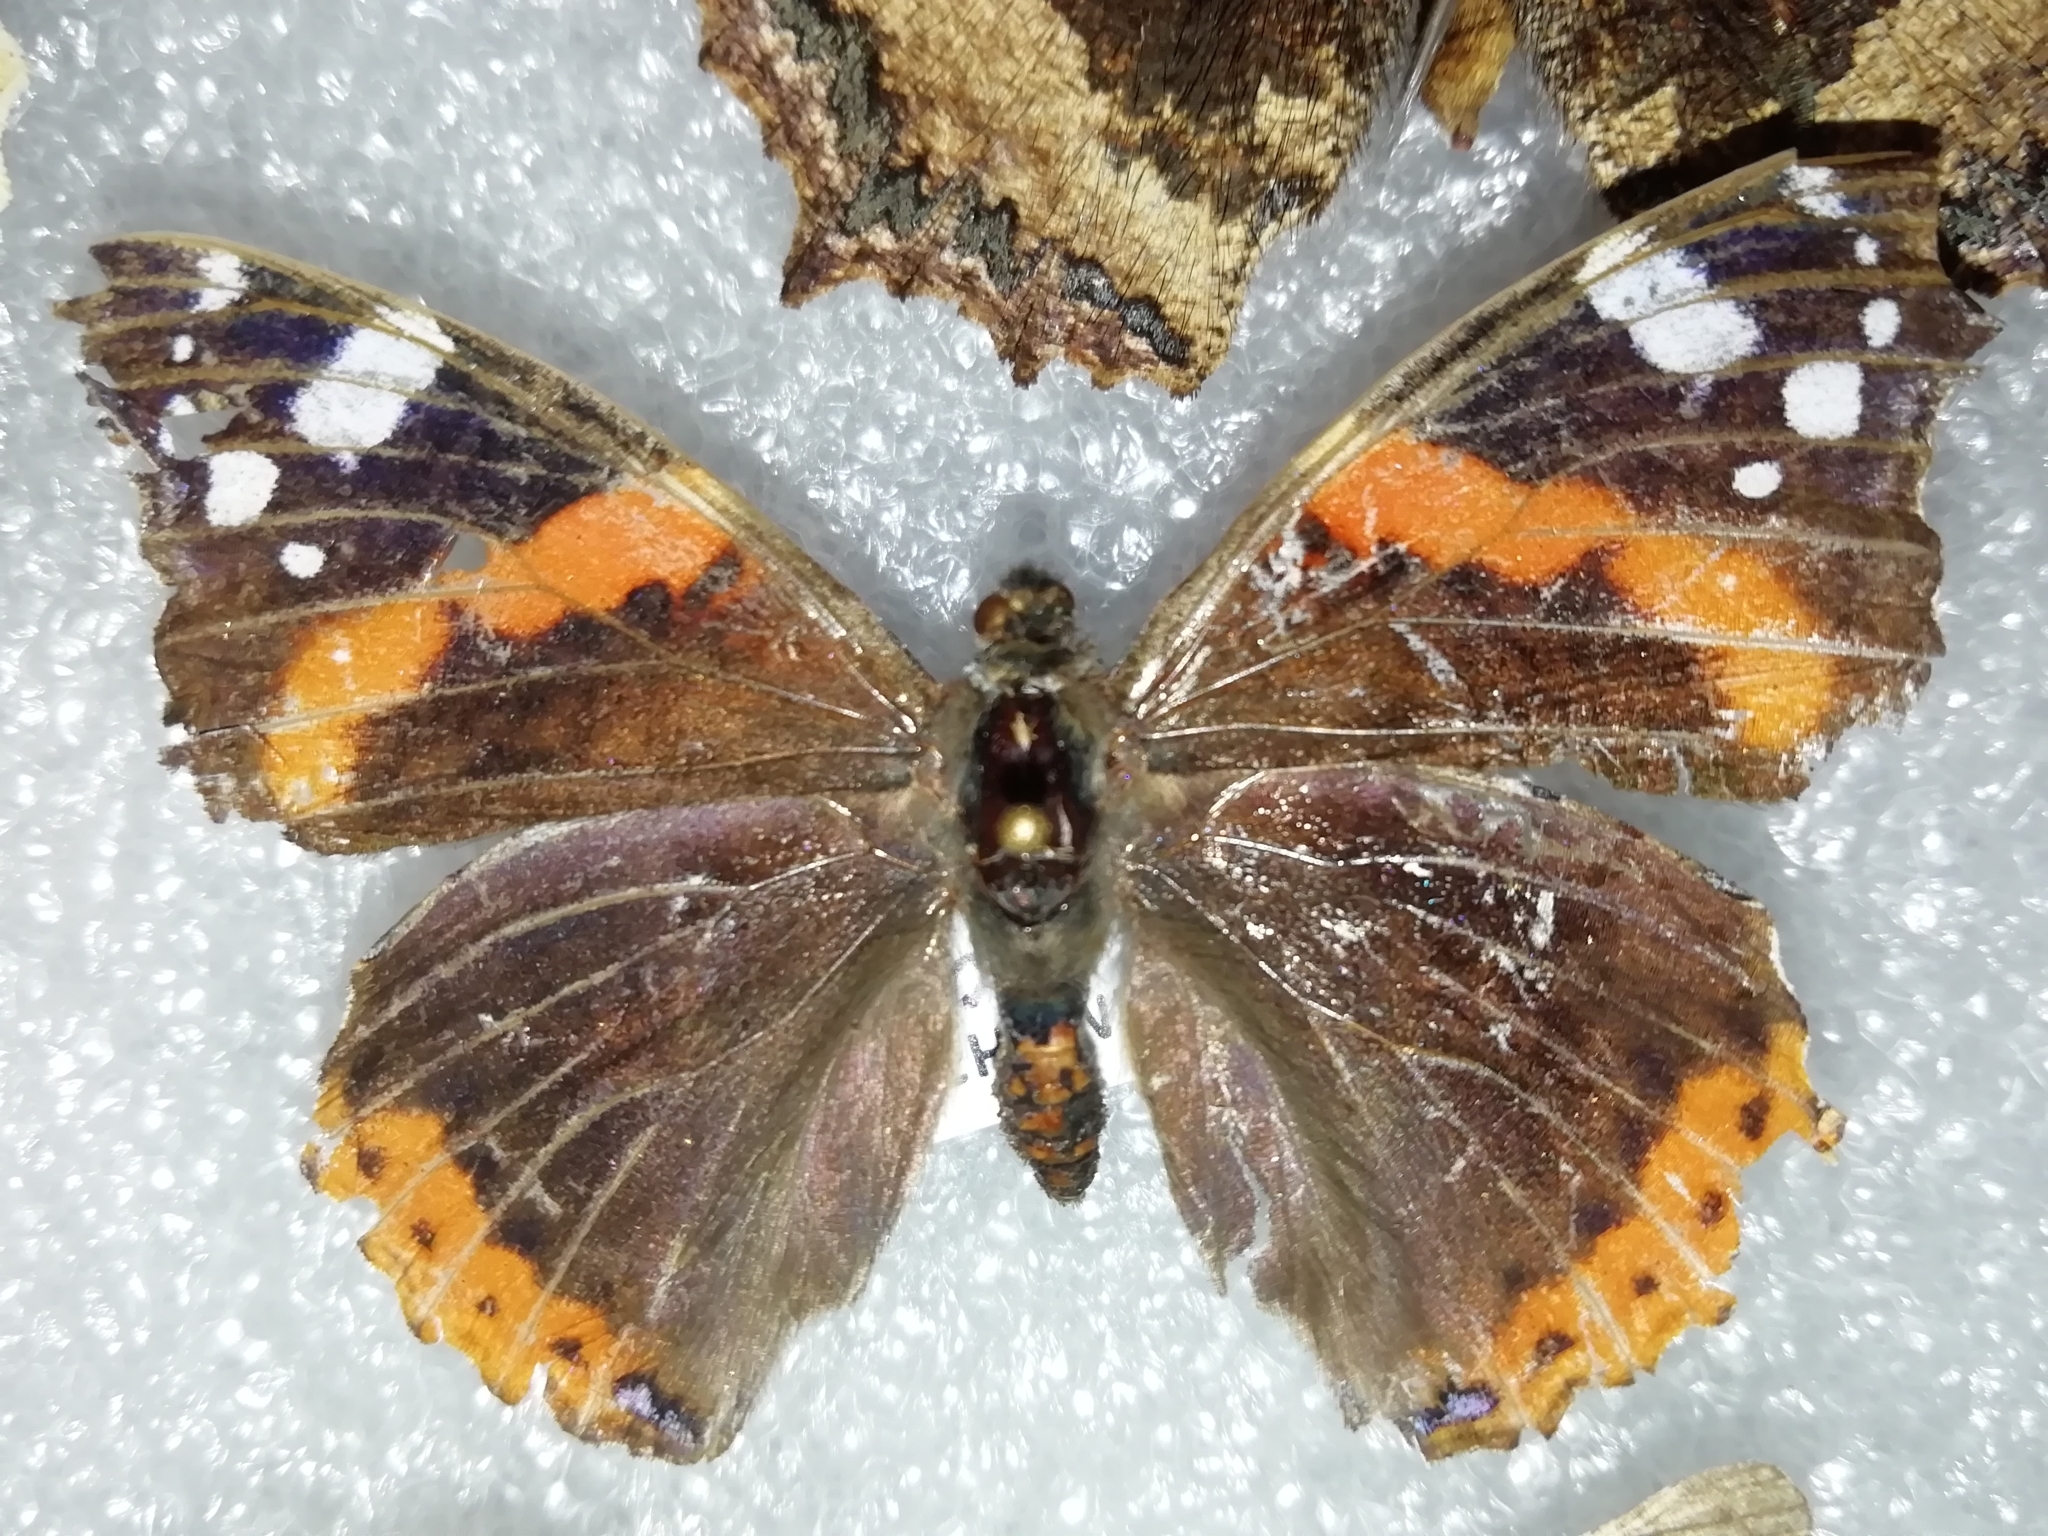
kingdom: Animalia
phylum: Arthropoda
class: Insecta
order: Lepidoptera
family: Nymphalidae
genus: Vanessa
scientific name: Vanessa atalanta
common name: Red admiral
